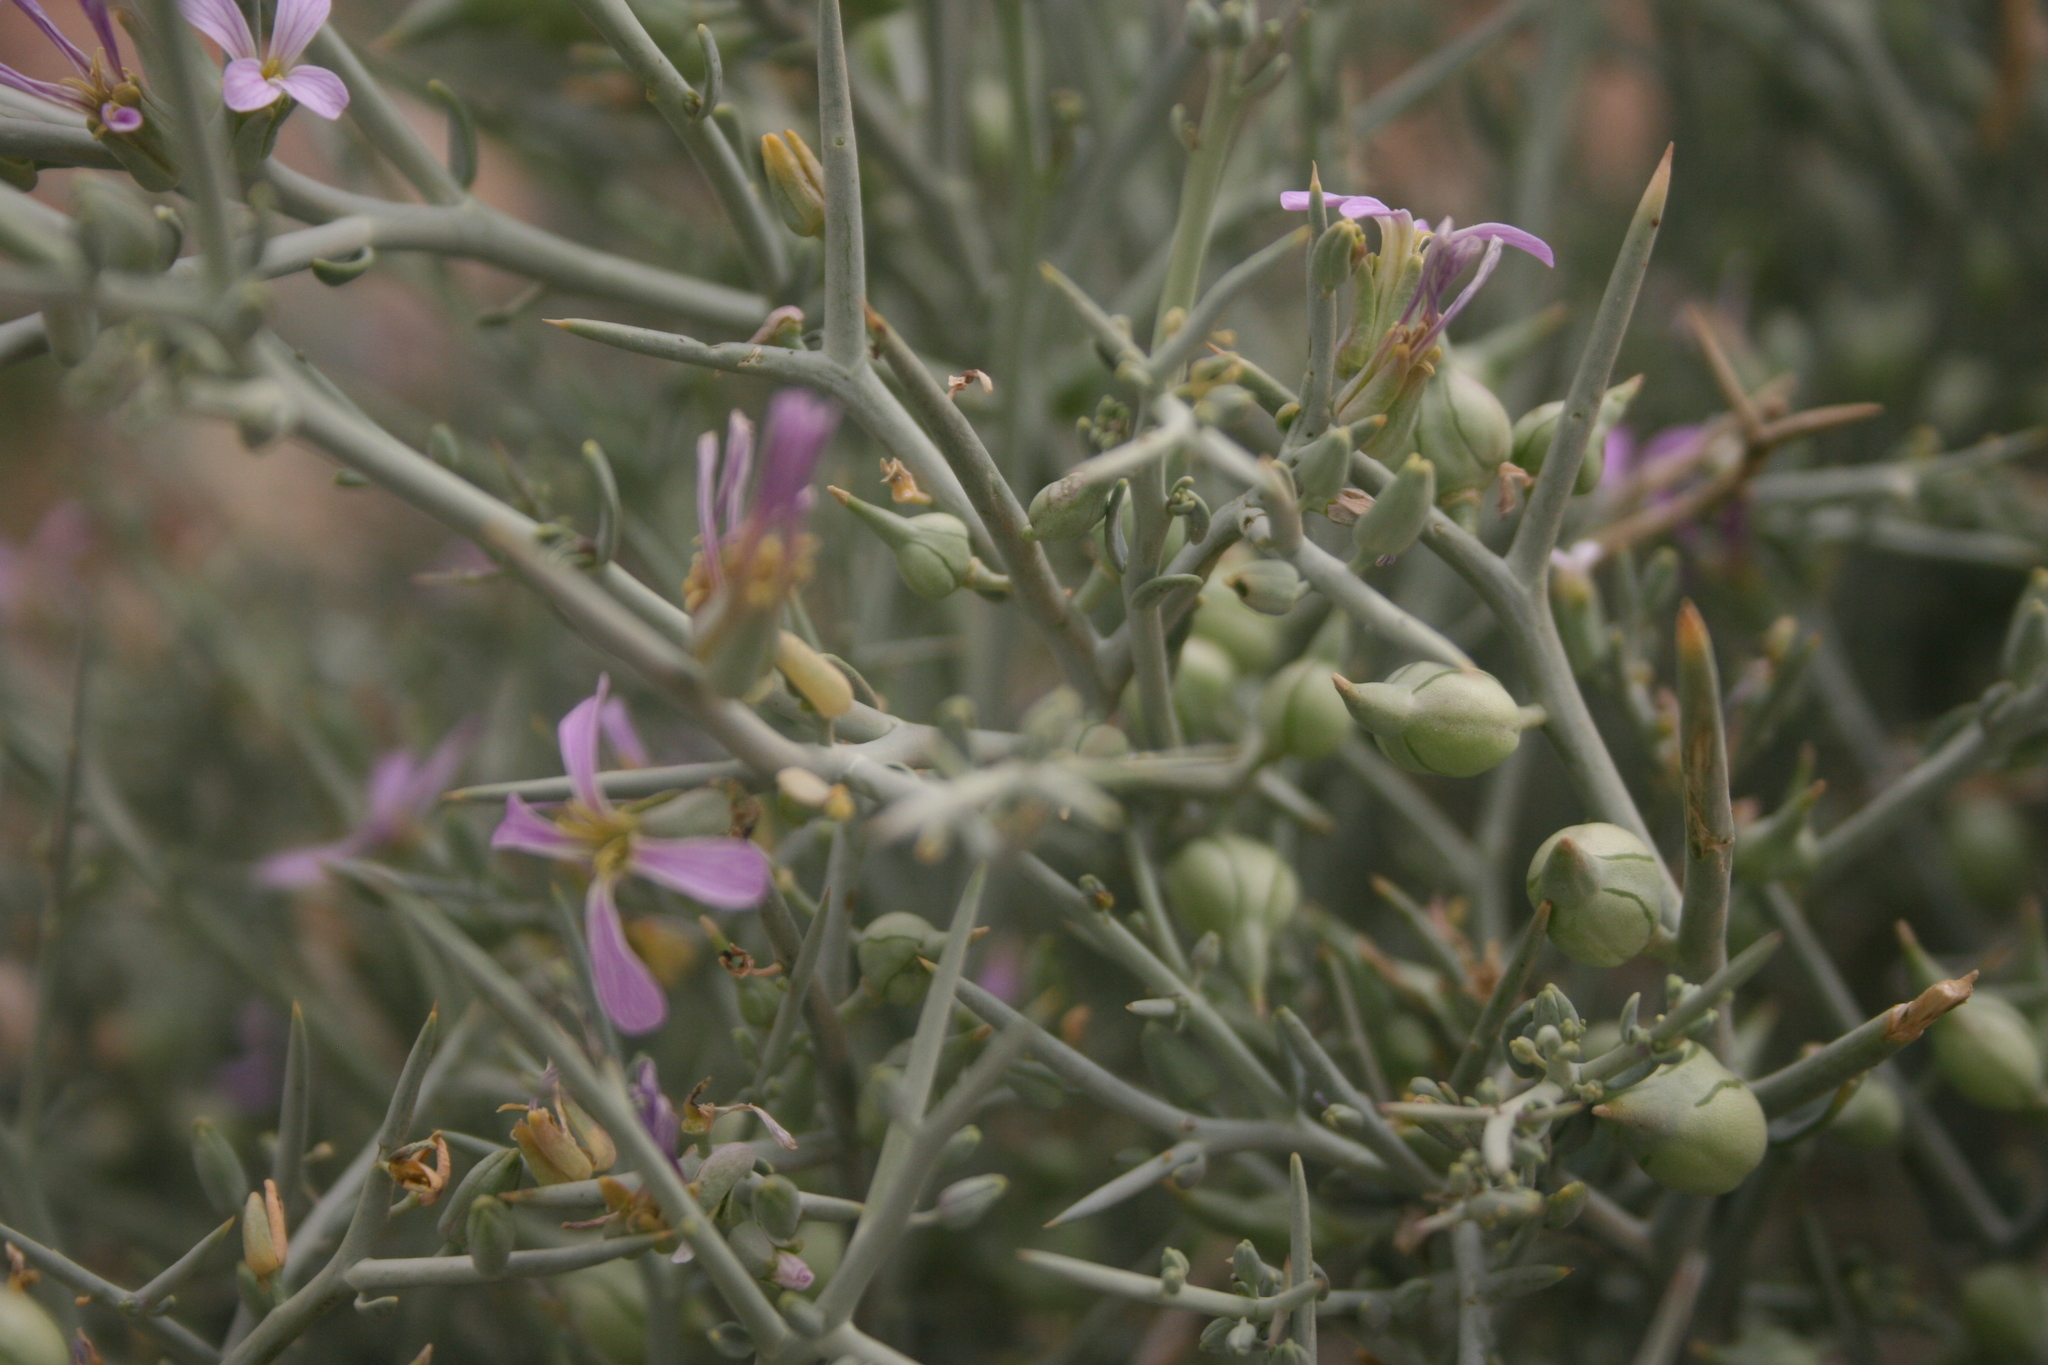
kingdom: Plantae
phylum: Tracheophyta
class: Magnoliopsida
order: Brassicales
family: Brassicaceae
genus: Zilla
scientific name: Zilla spinosa
